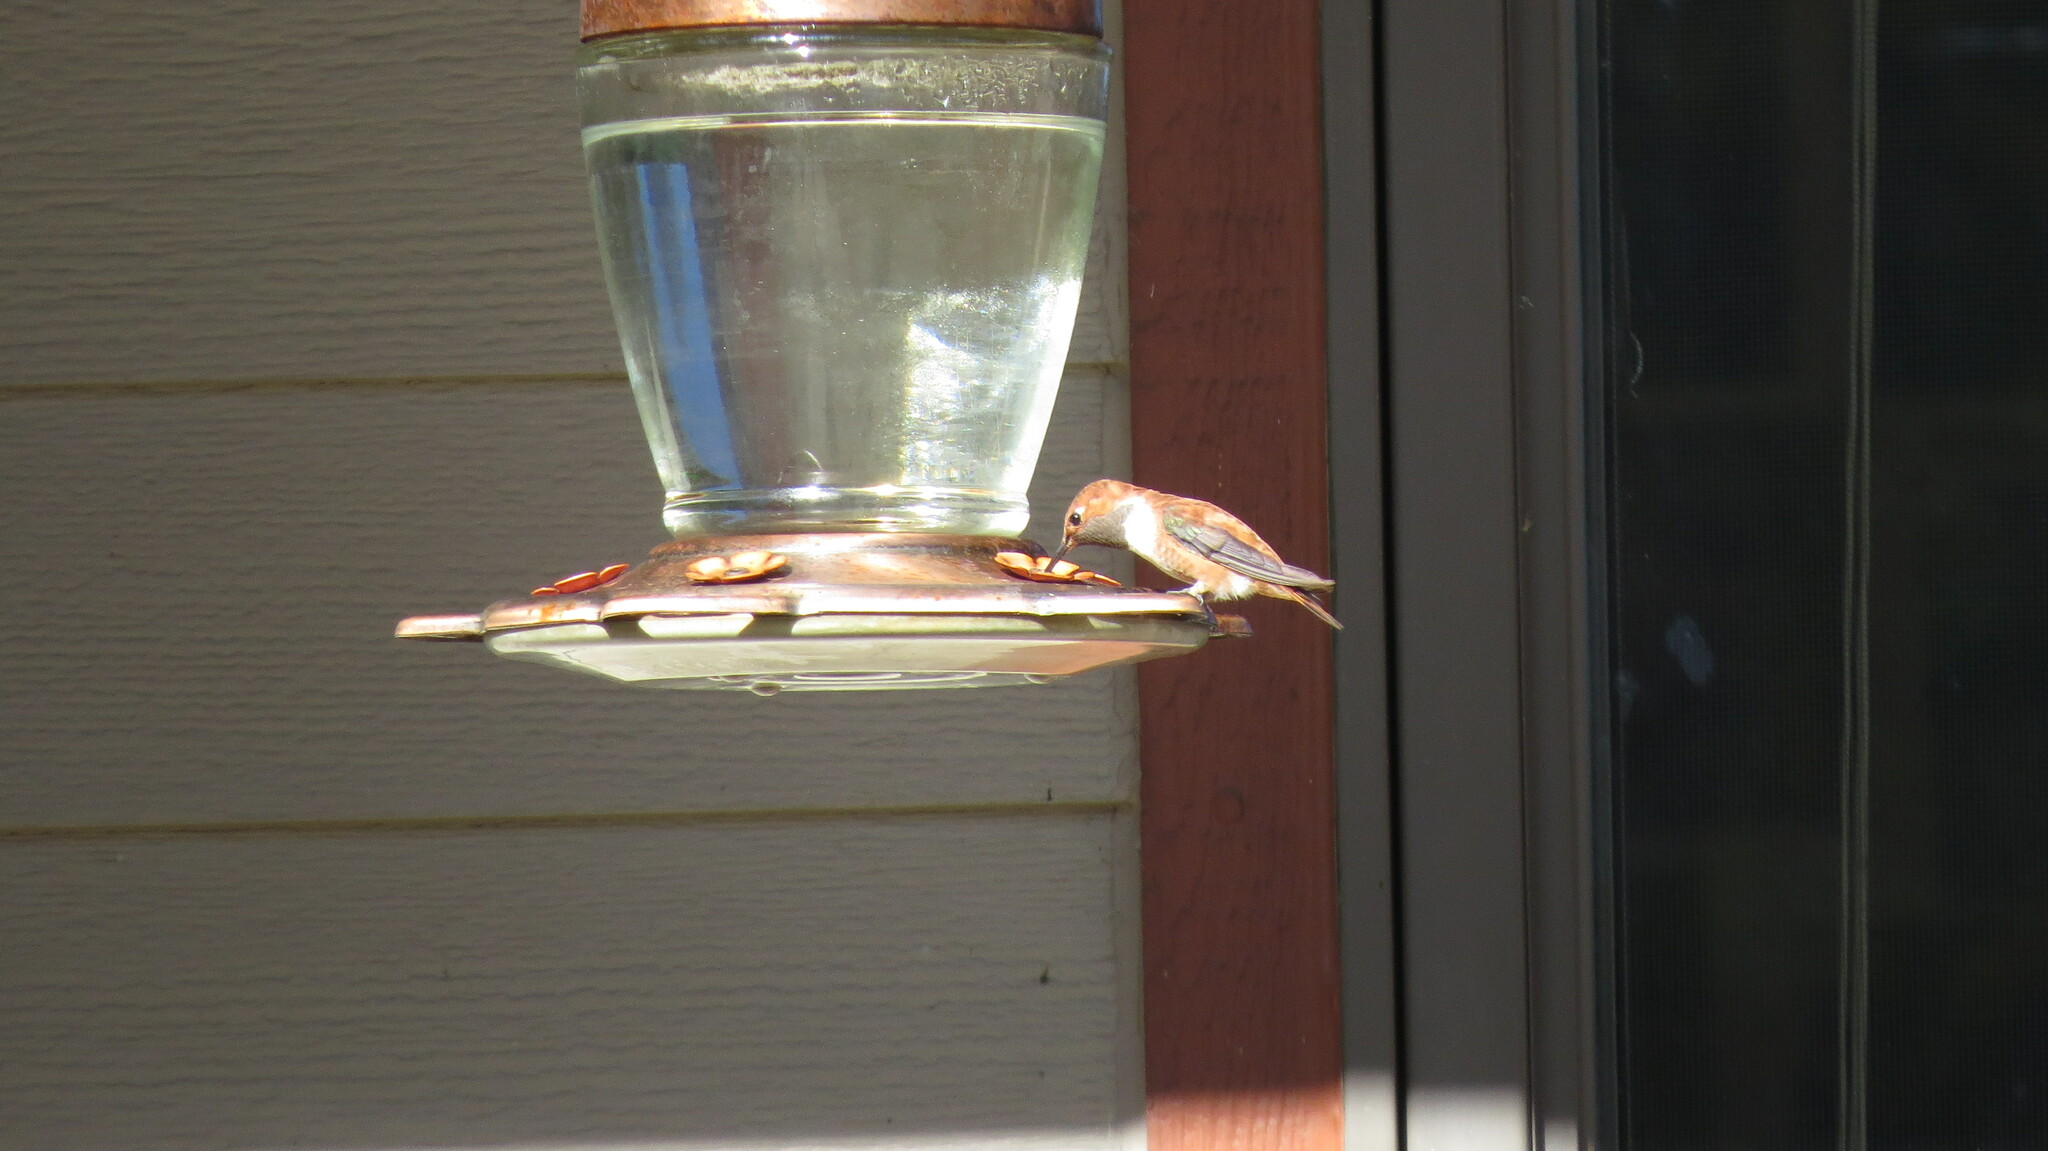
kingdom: Animalia
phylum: Chordata
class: Aves
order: Apodiformes
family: Trochilidae
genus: Selasphorus
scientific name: Selasphorus rufus
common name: Rufous hummingbird
